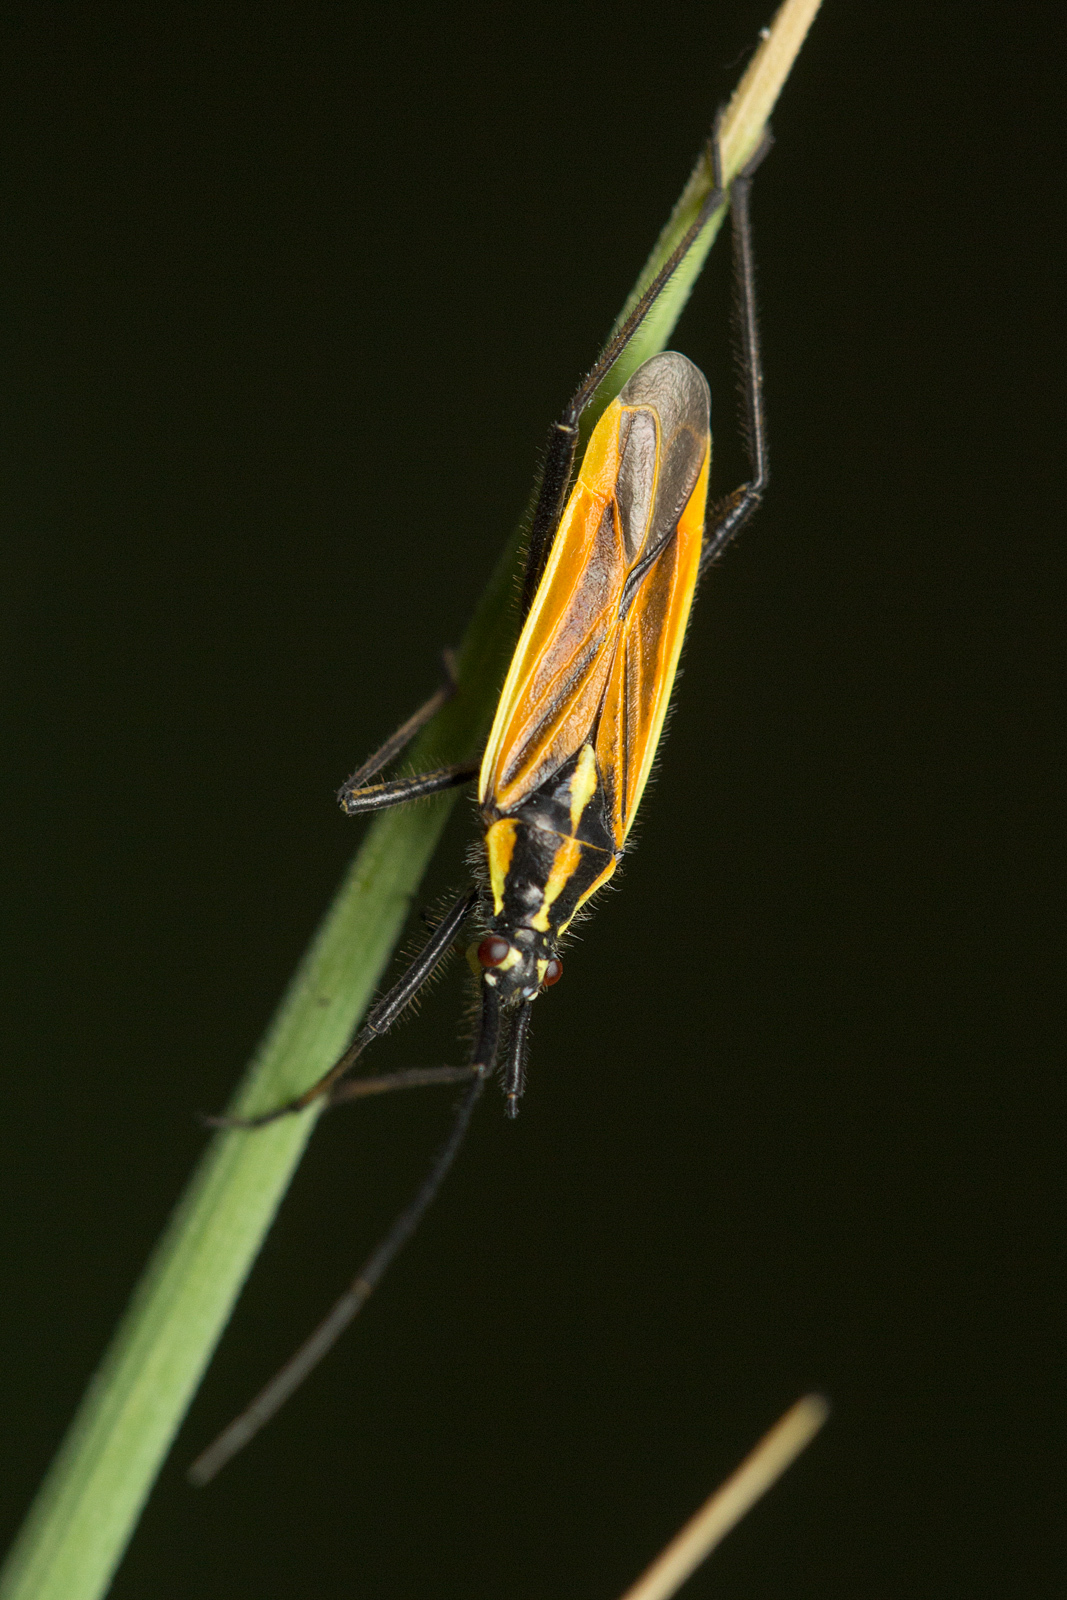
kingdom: Animalia
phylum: Arthropoda
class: Insecta
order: Hemiptera
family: Miridae
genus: Leptopterna
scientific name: Leptopterna dolabrata
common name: Meadow plant bug
